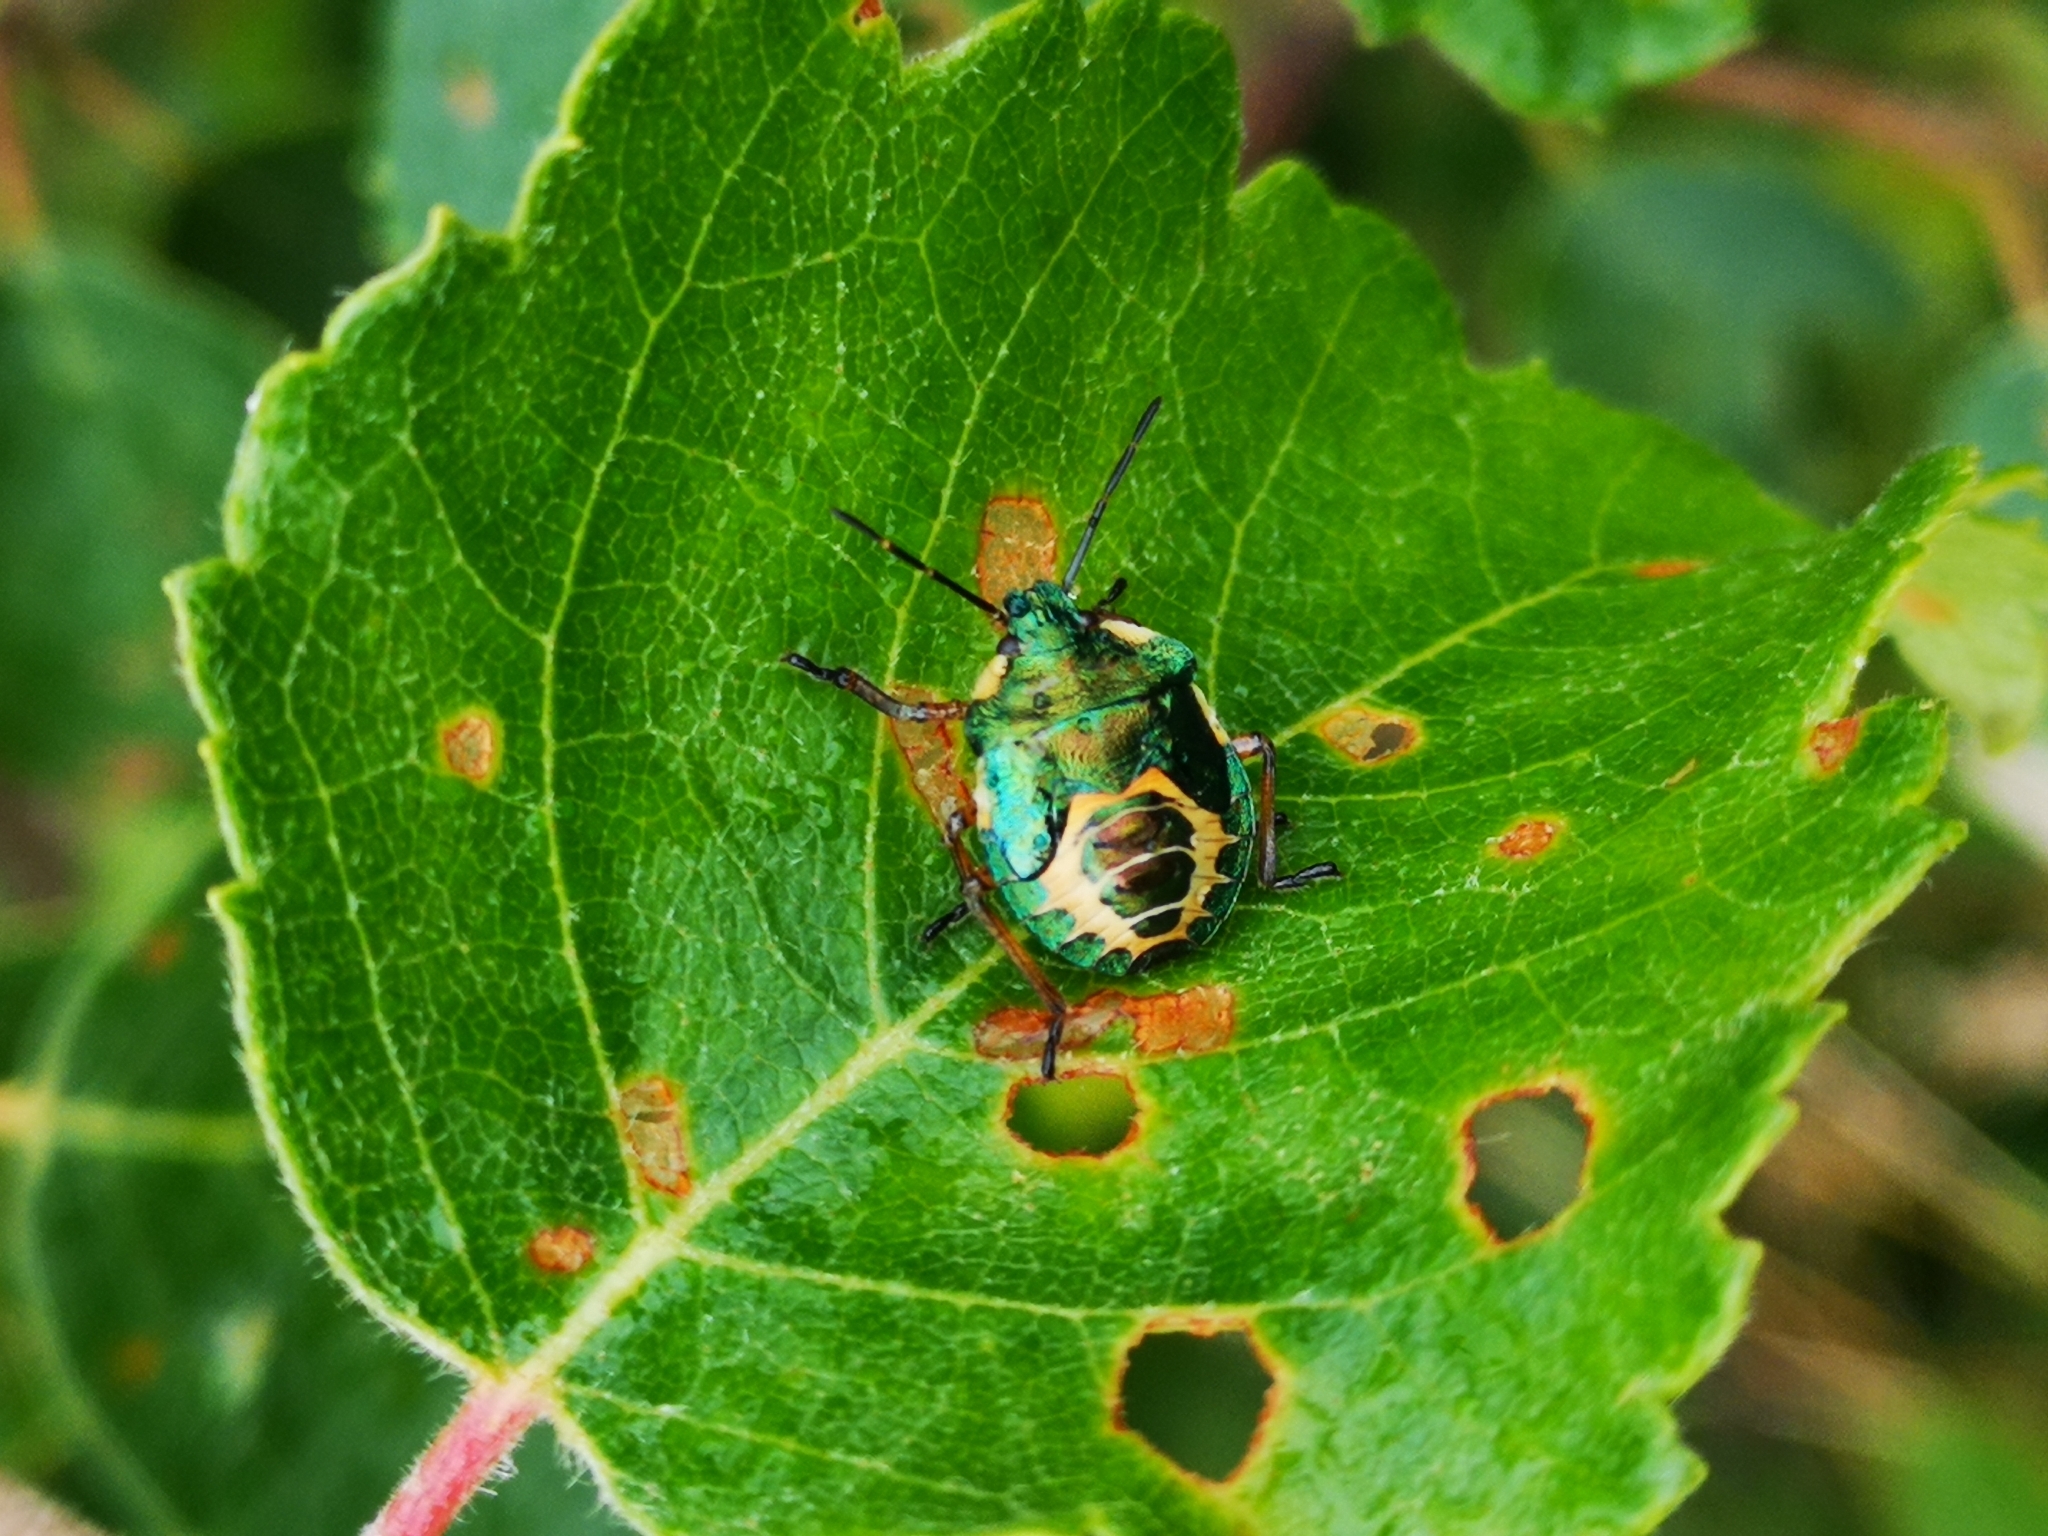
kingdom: Animalia
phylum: Arthropoda
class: Insecta
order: Hemiptera
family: Pentatomidae
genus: Troilus
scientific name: Troilus luridus
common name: Bronze shieldbug
